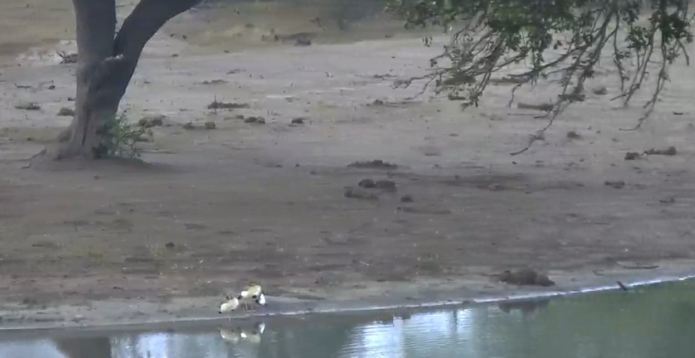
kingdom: Animalia
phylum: Chordata
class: Aves
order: Anseriformes
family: Anatidae
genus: Alopochen
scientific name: Alopochen aegyptiaca
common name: Egyptian goose
